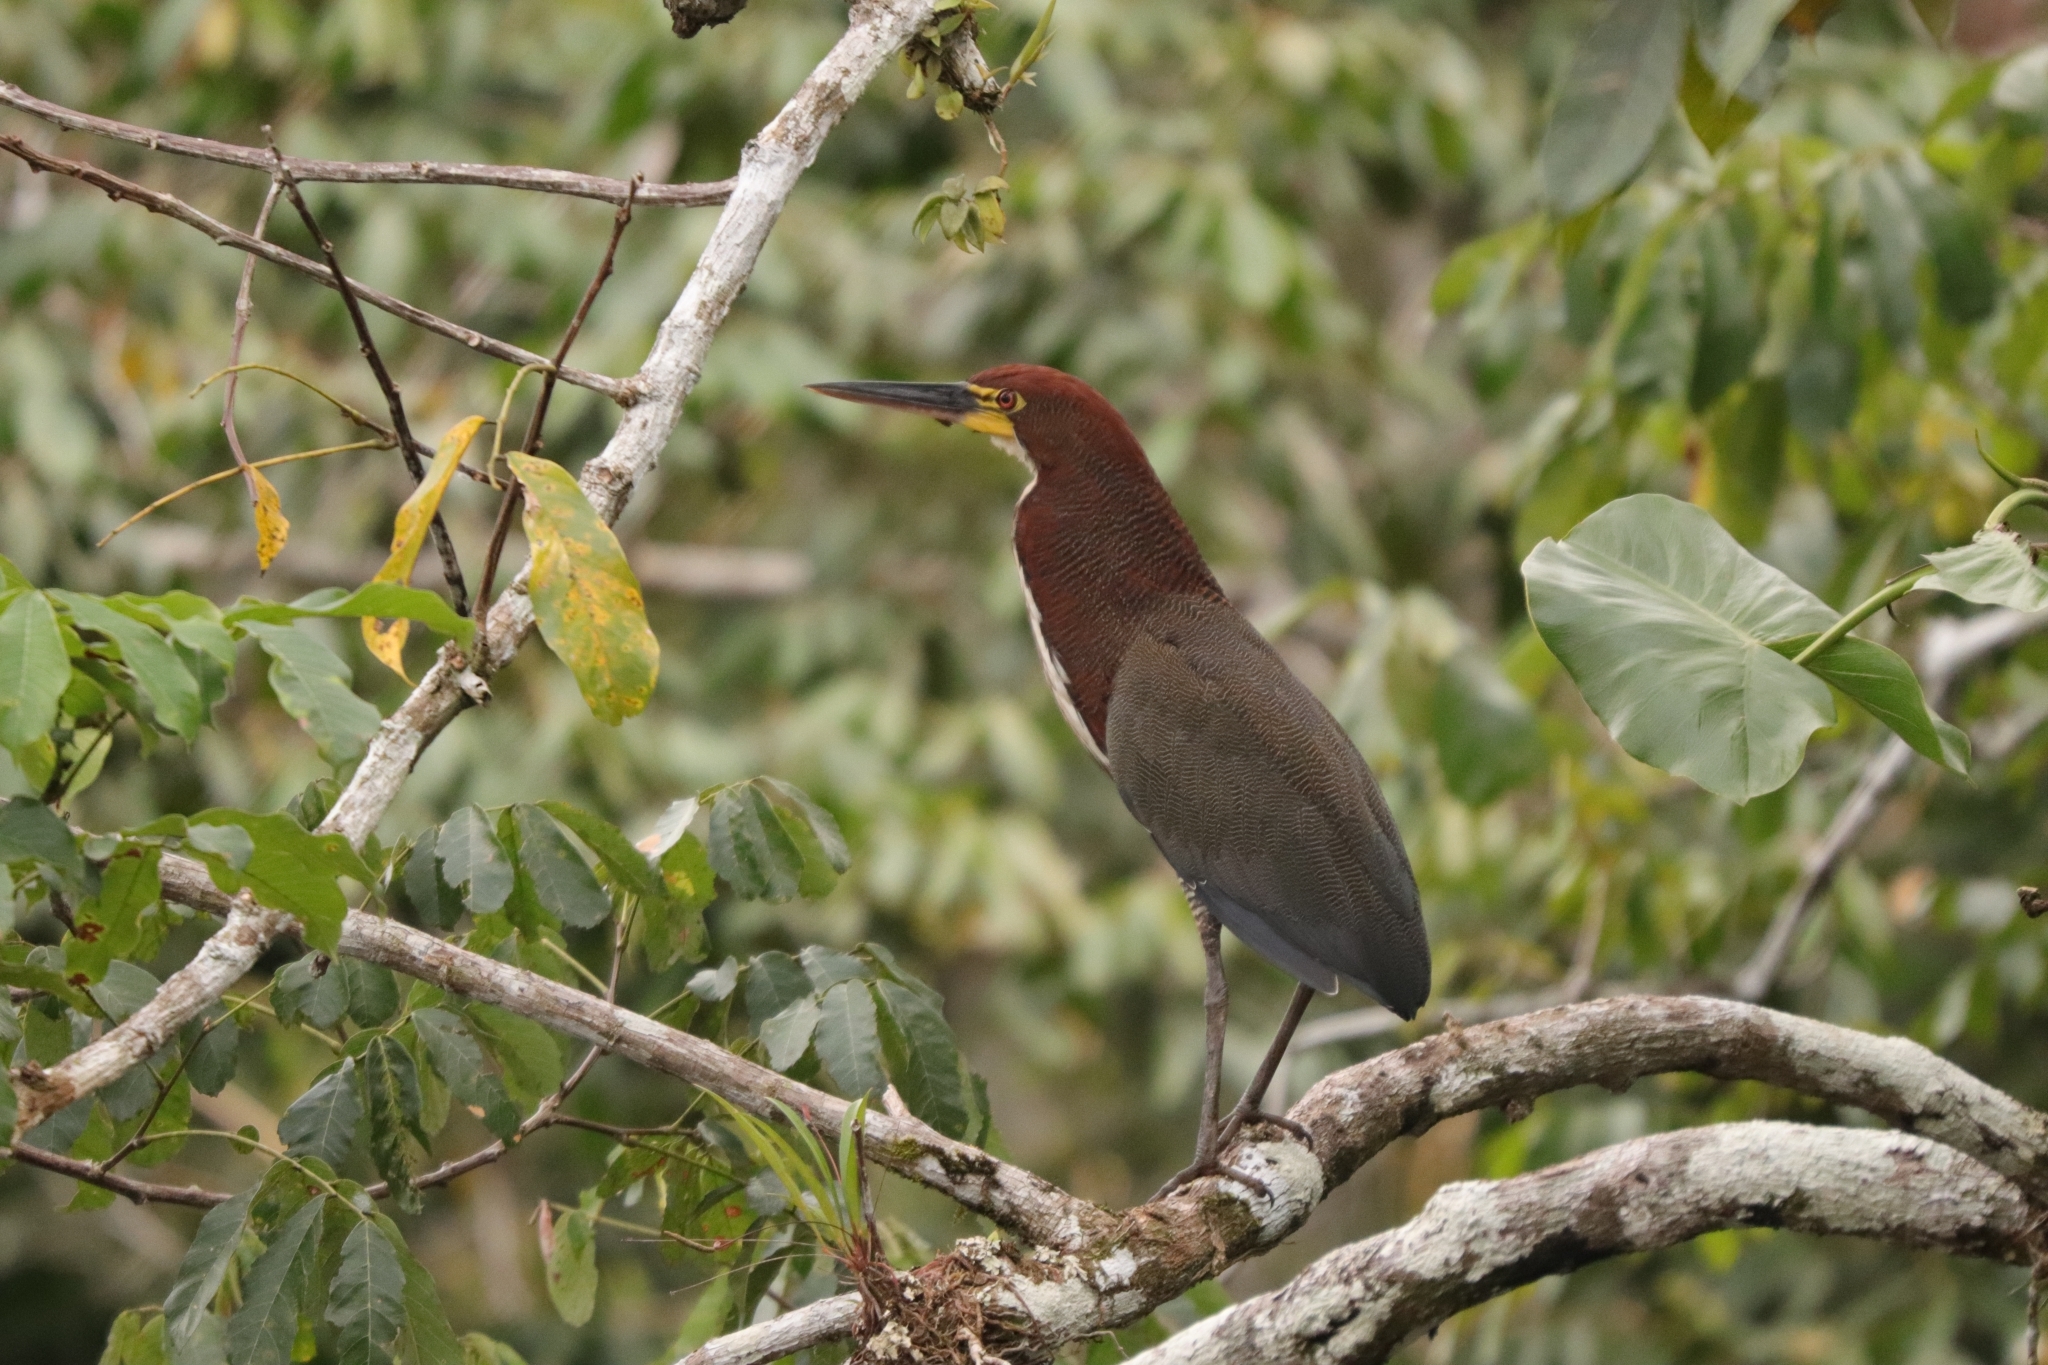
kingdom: Animalia
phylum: Chordata
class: Aves
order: Pelecaniformes
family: Ardeidae
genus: Tigrisoma
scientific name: Tigrisoma lineatum
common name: Rufescent tiger-heron
